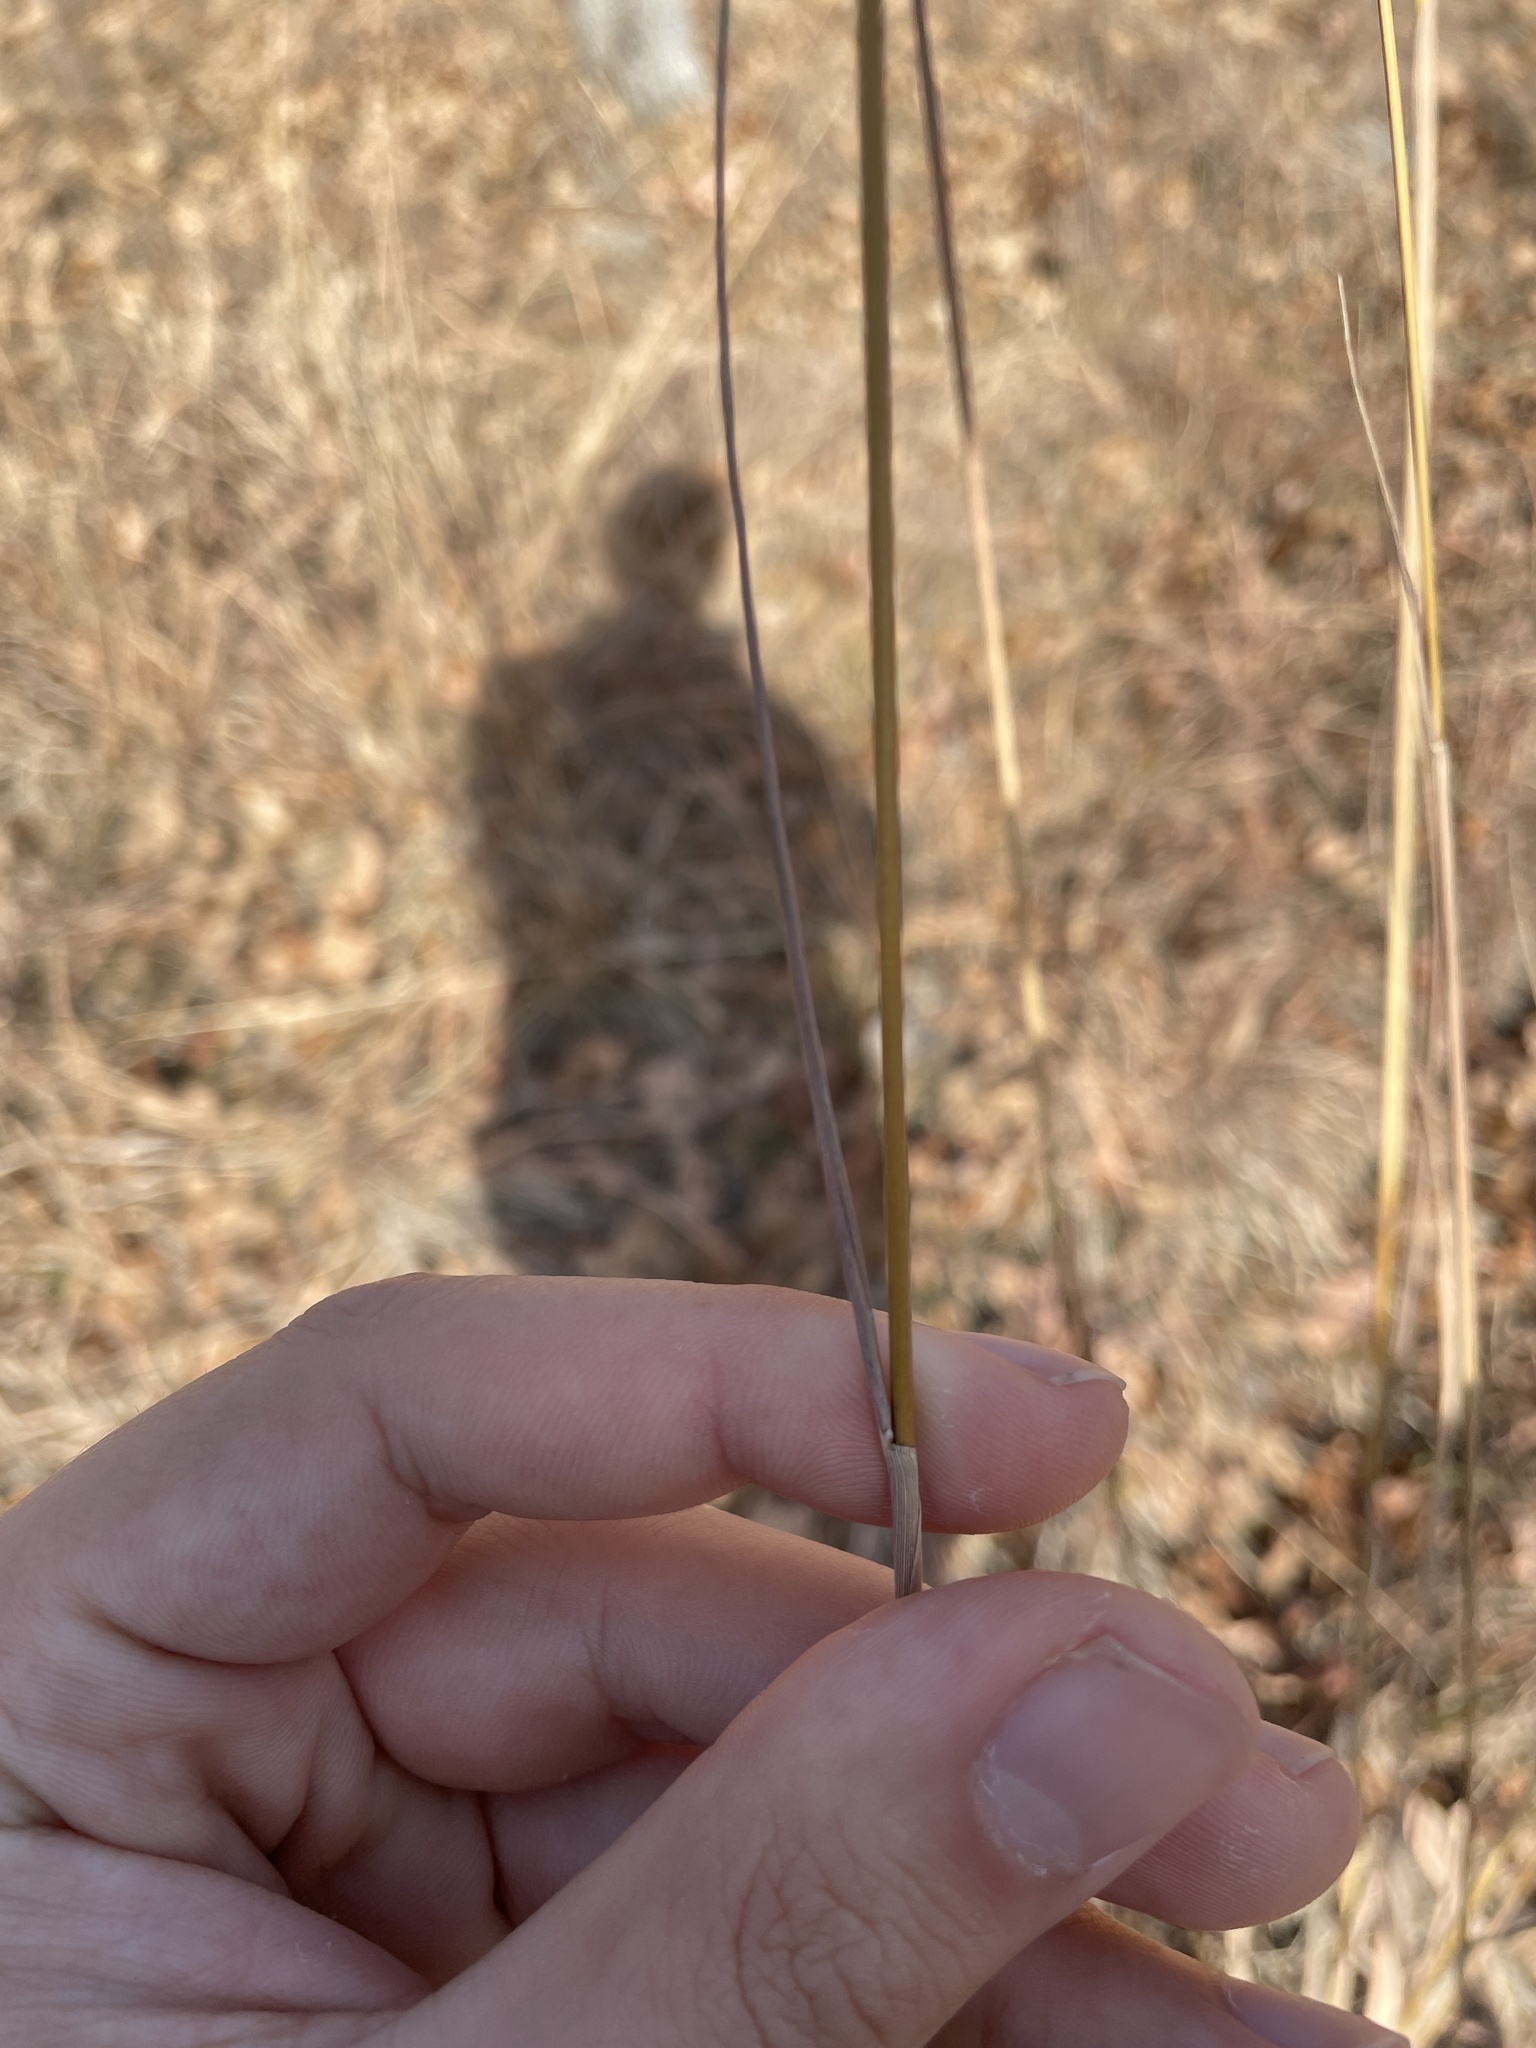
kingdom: Plantae
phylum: Tracheophyta
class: Liliopsida
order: Poales
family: Poaceae
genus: Sorghastrum
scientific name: Sorghastrum nutans
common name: Indian grass
